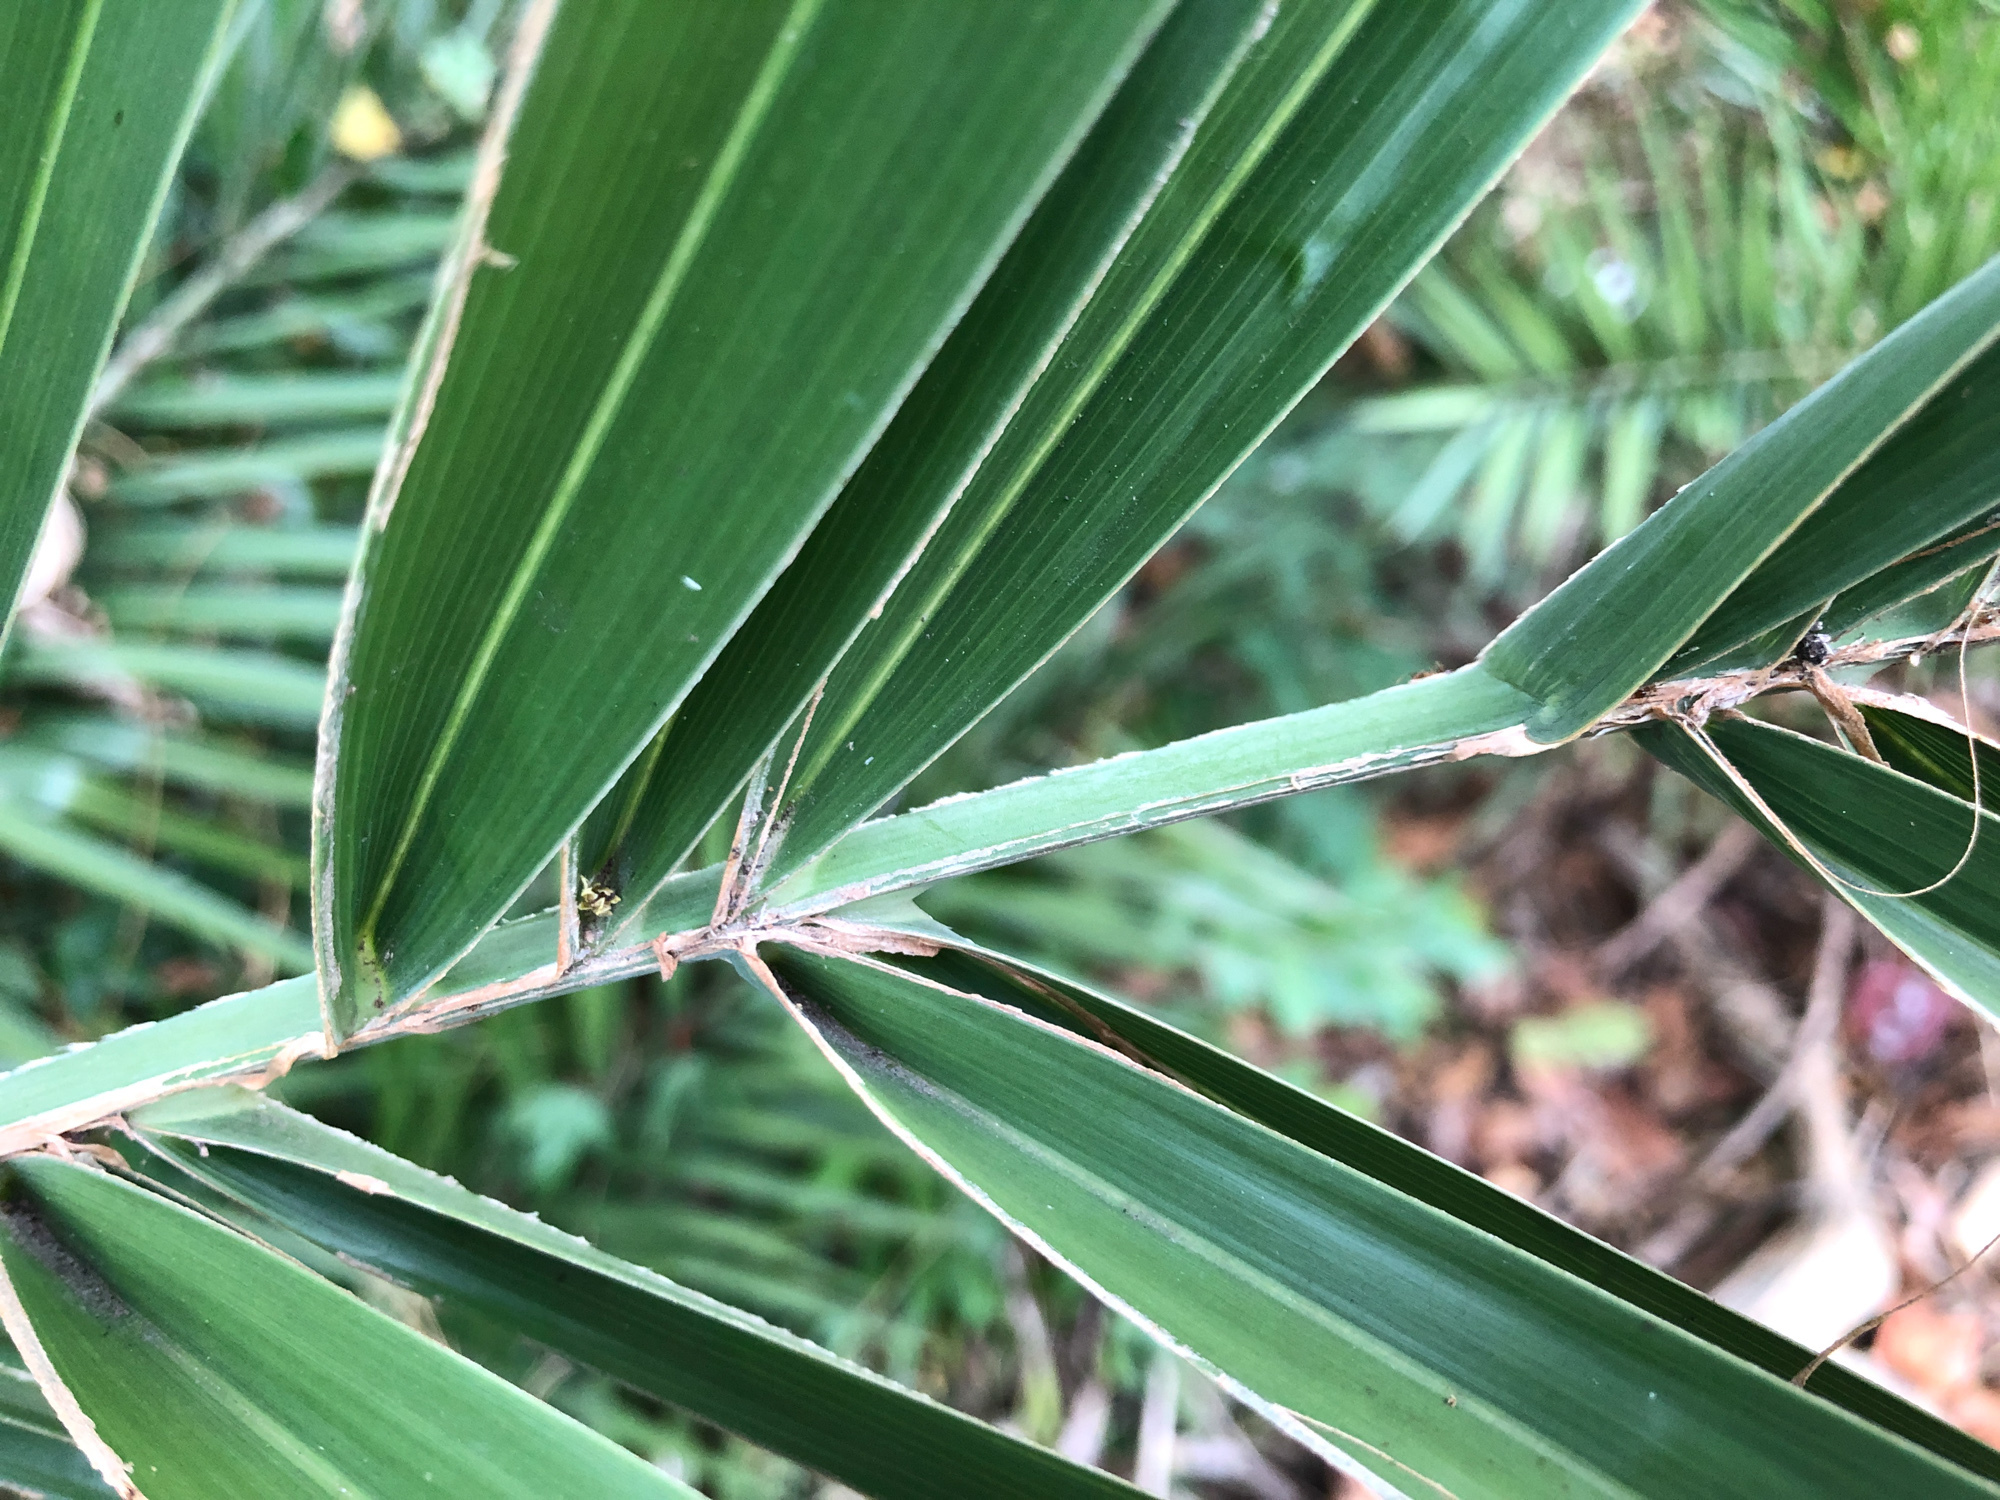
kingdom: Plantae
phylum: Tracheophyta
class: Liliopsida
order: Arecales
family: Arecaceae
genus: Phoenix
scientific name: Phoenix loureiroi
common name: Loureiro's palm
